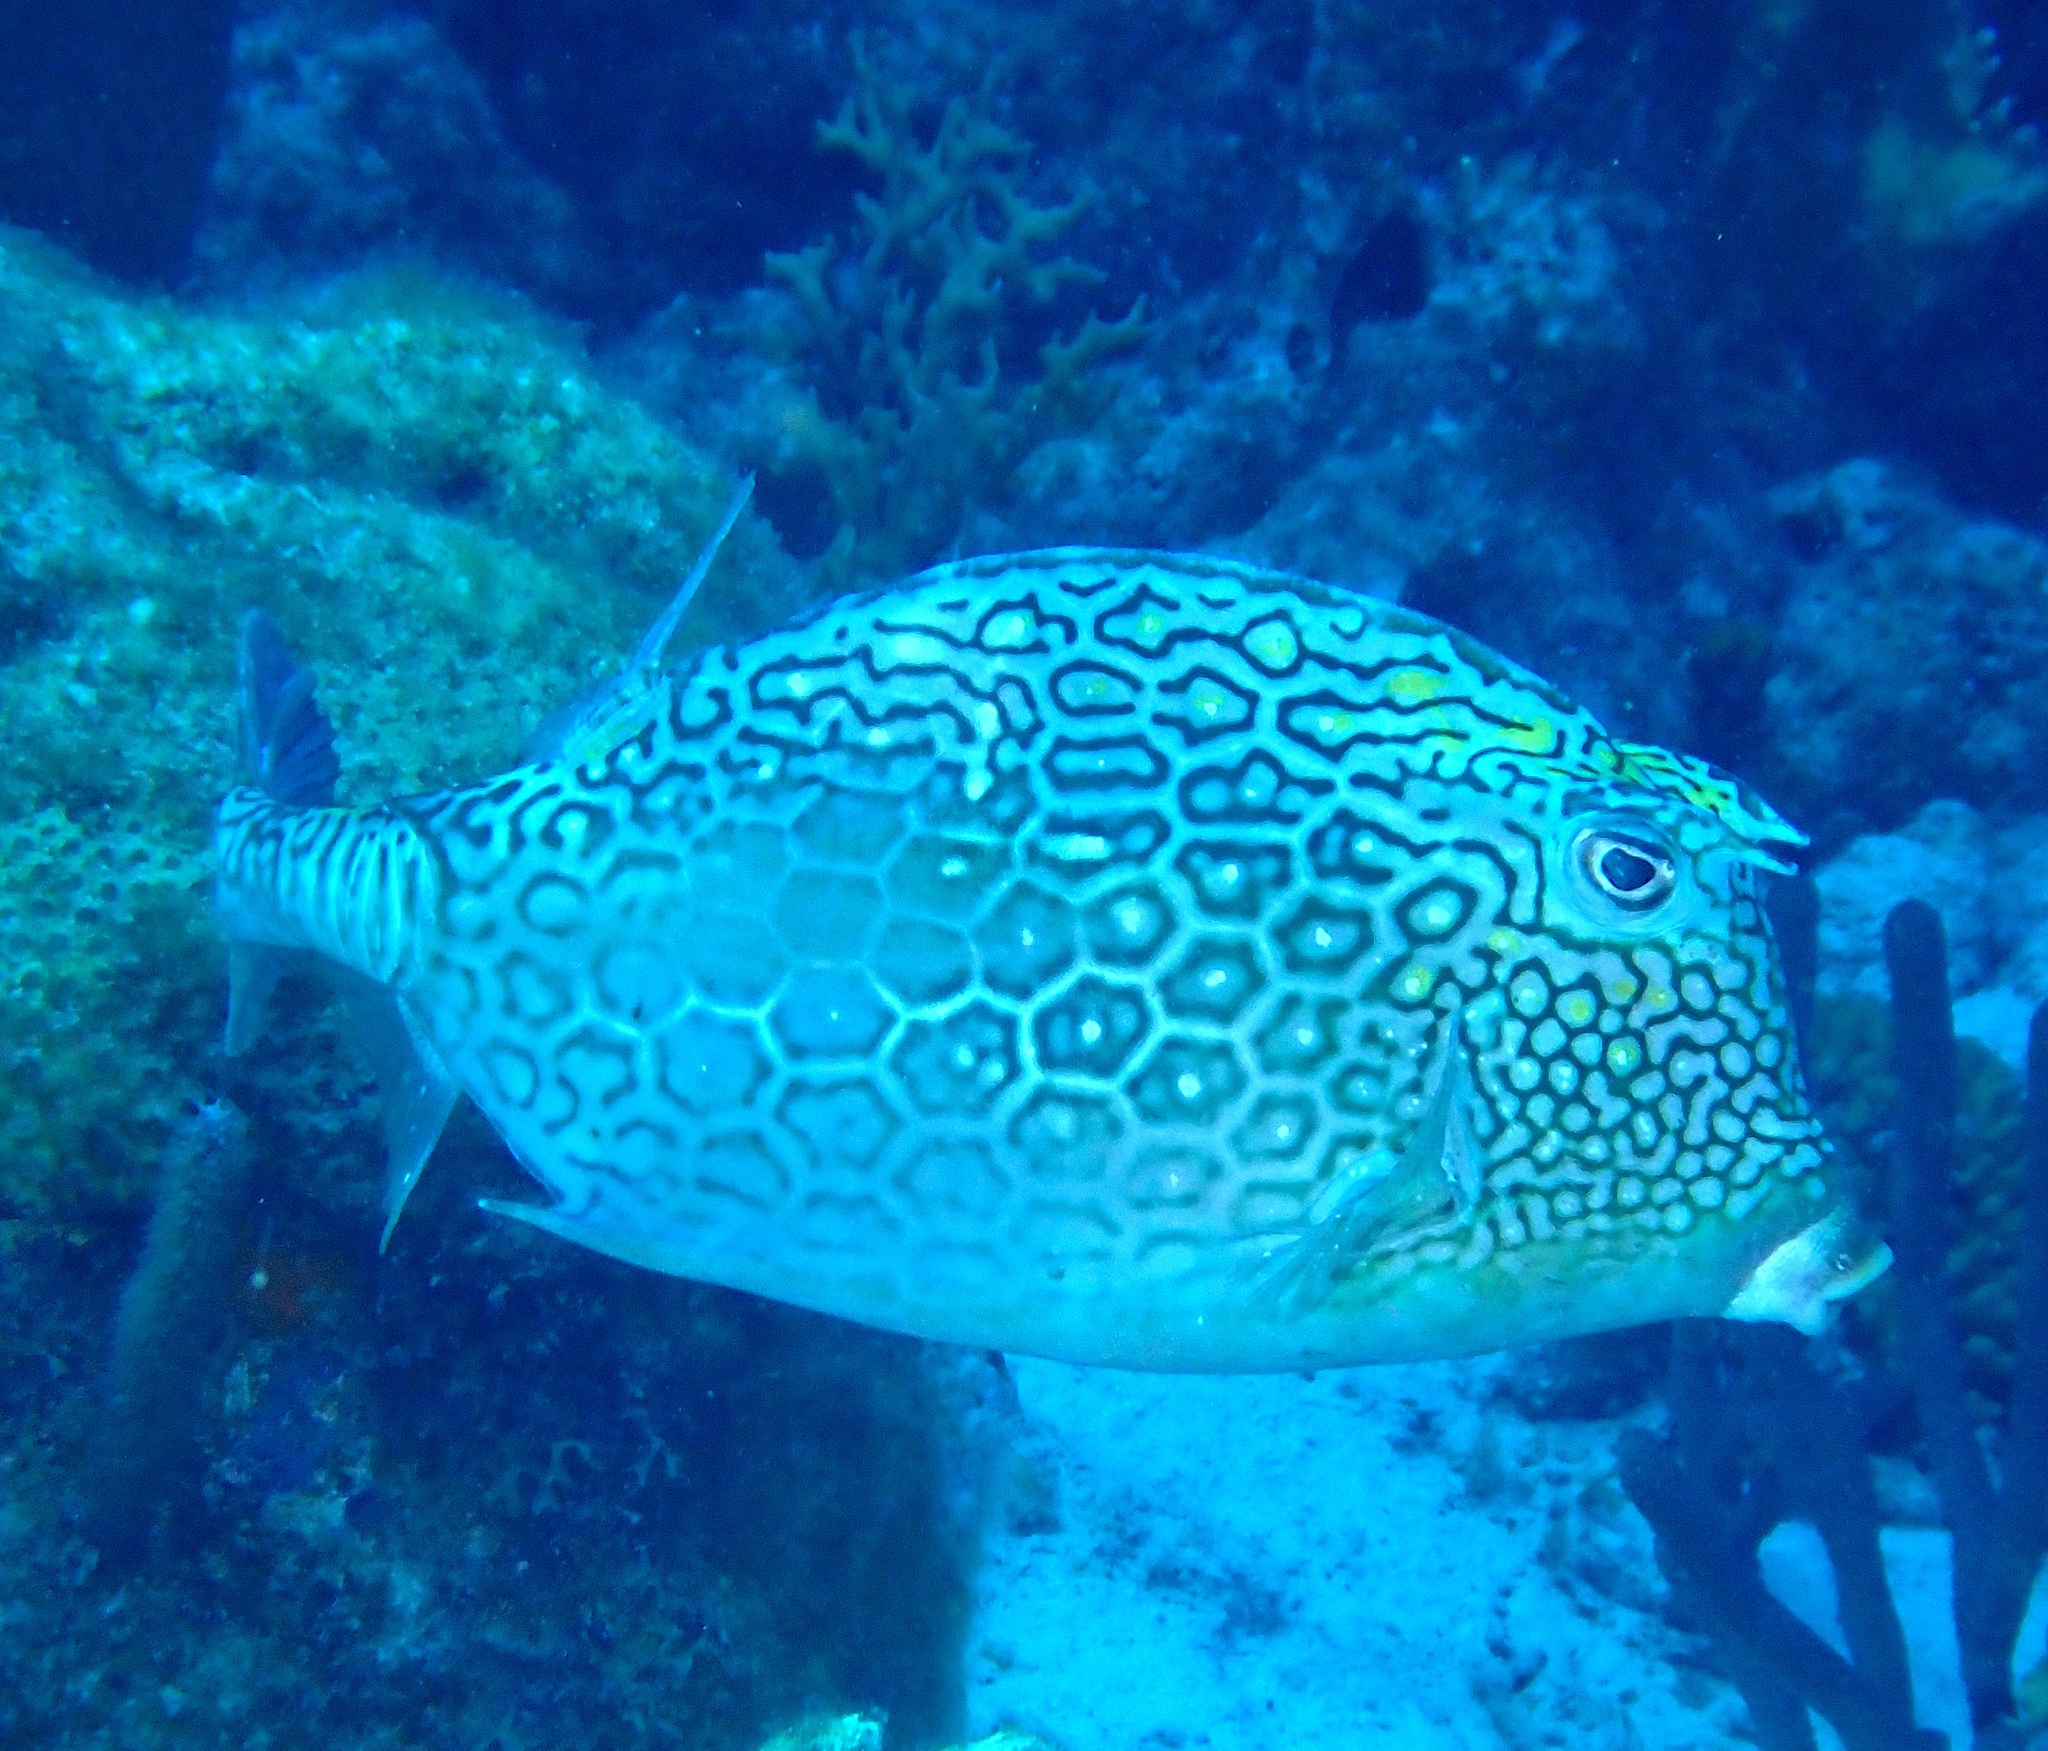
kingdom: Animalia
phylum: Chordata
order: Tetraodontiformes
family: Ostraciidae
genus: Acanthostracion
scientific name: Acanthostracion polygonius
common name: Honeycomb cowfish
